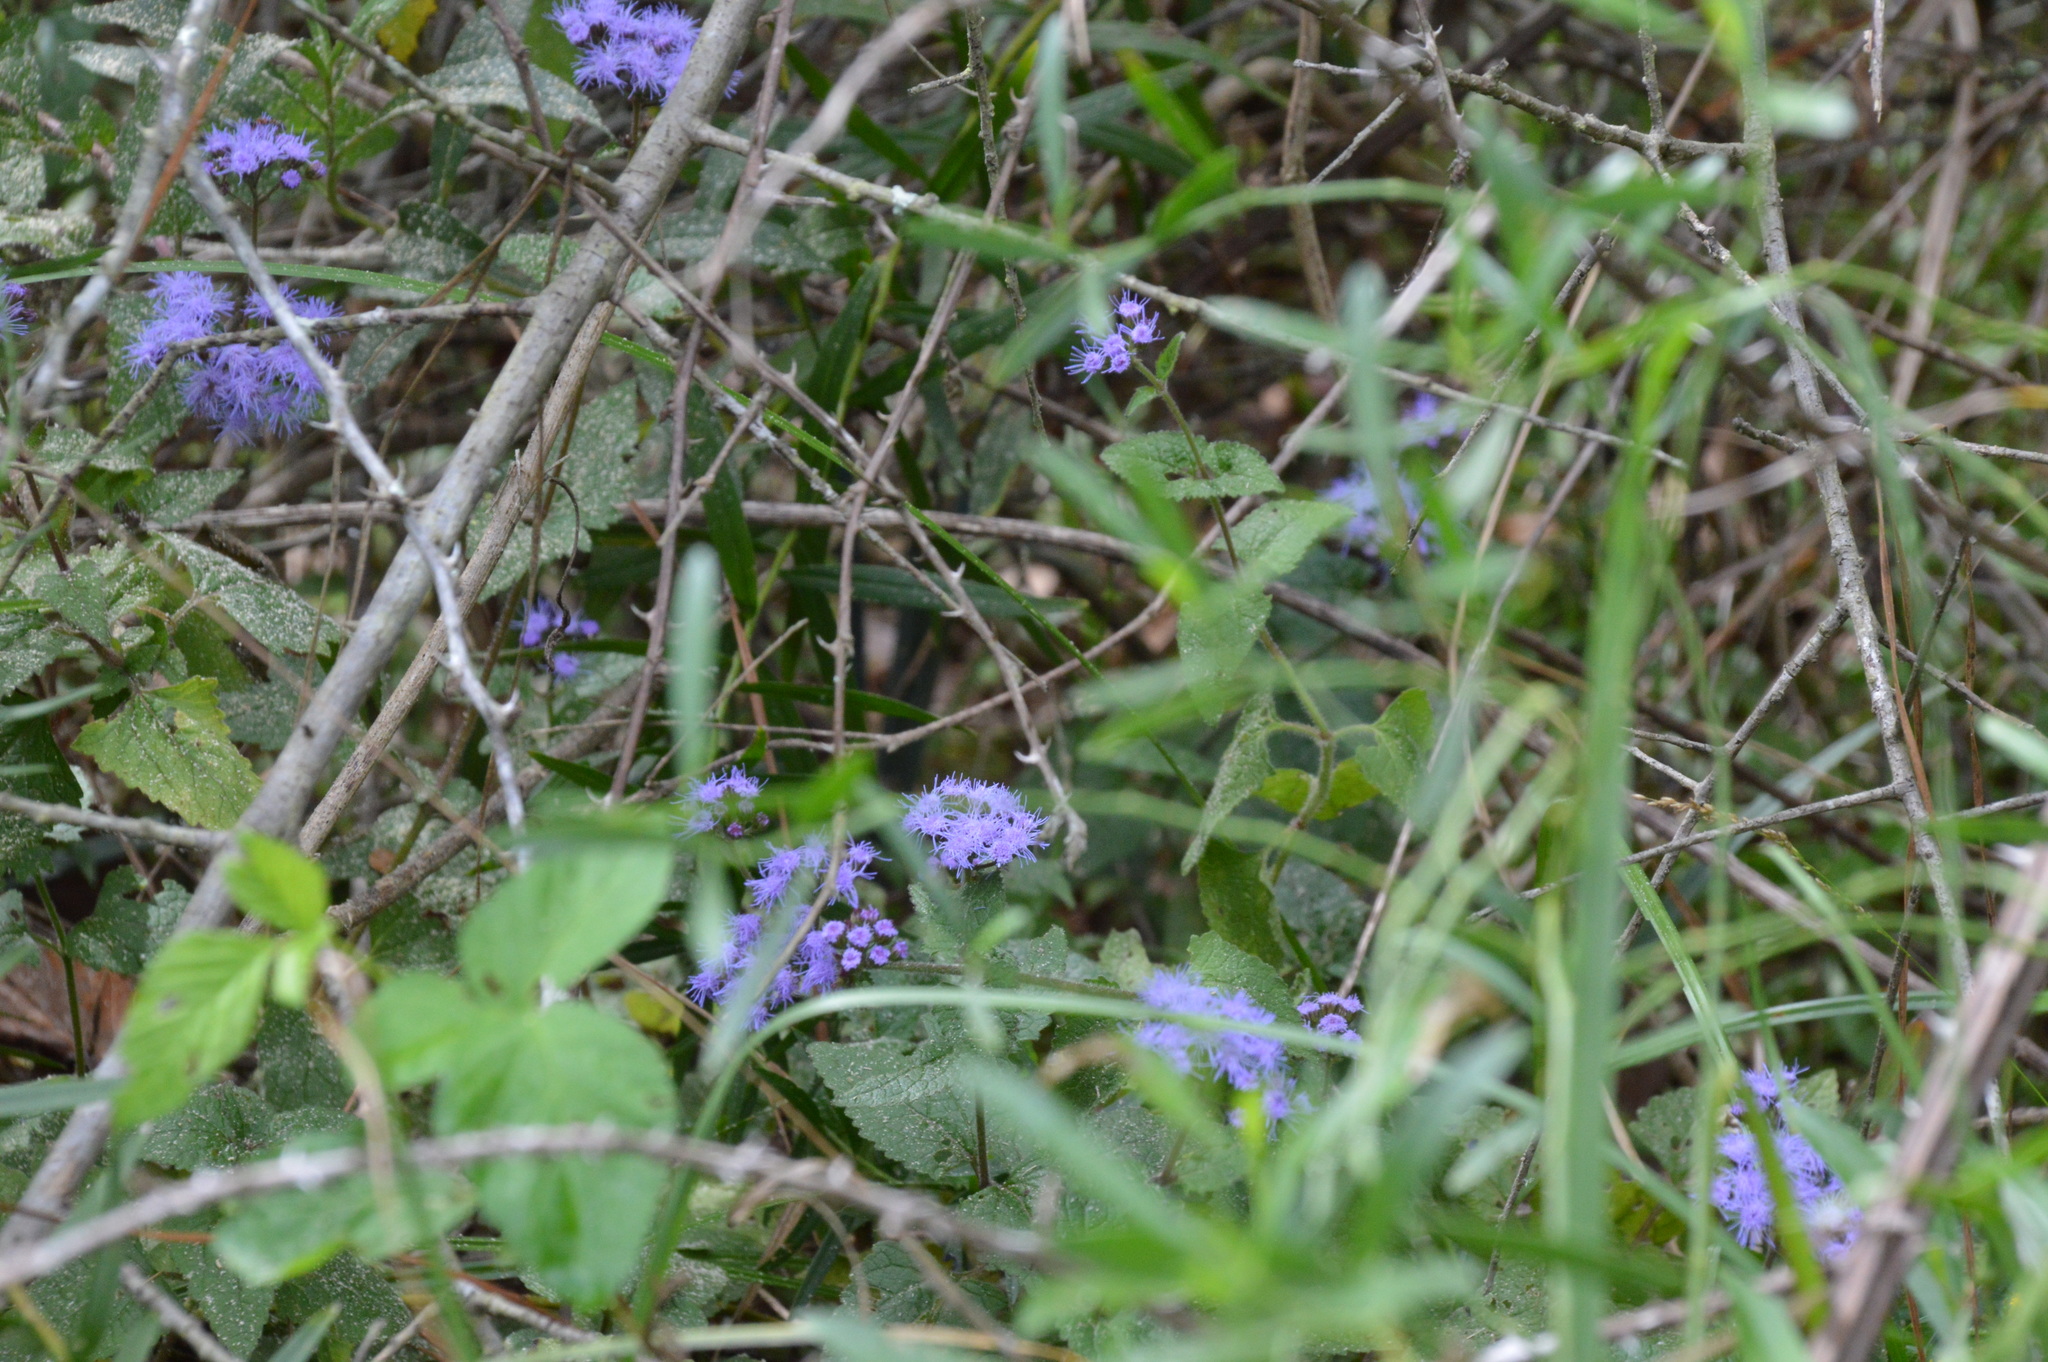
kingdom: Plantae
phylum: Tracheophyta
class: Magnoliopsida
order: Asterales
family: Asteraceae
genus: Conoclinium
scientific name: Conoclinium coelestinum
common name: Blue mistflower
